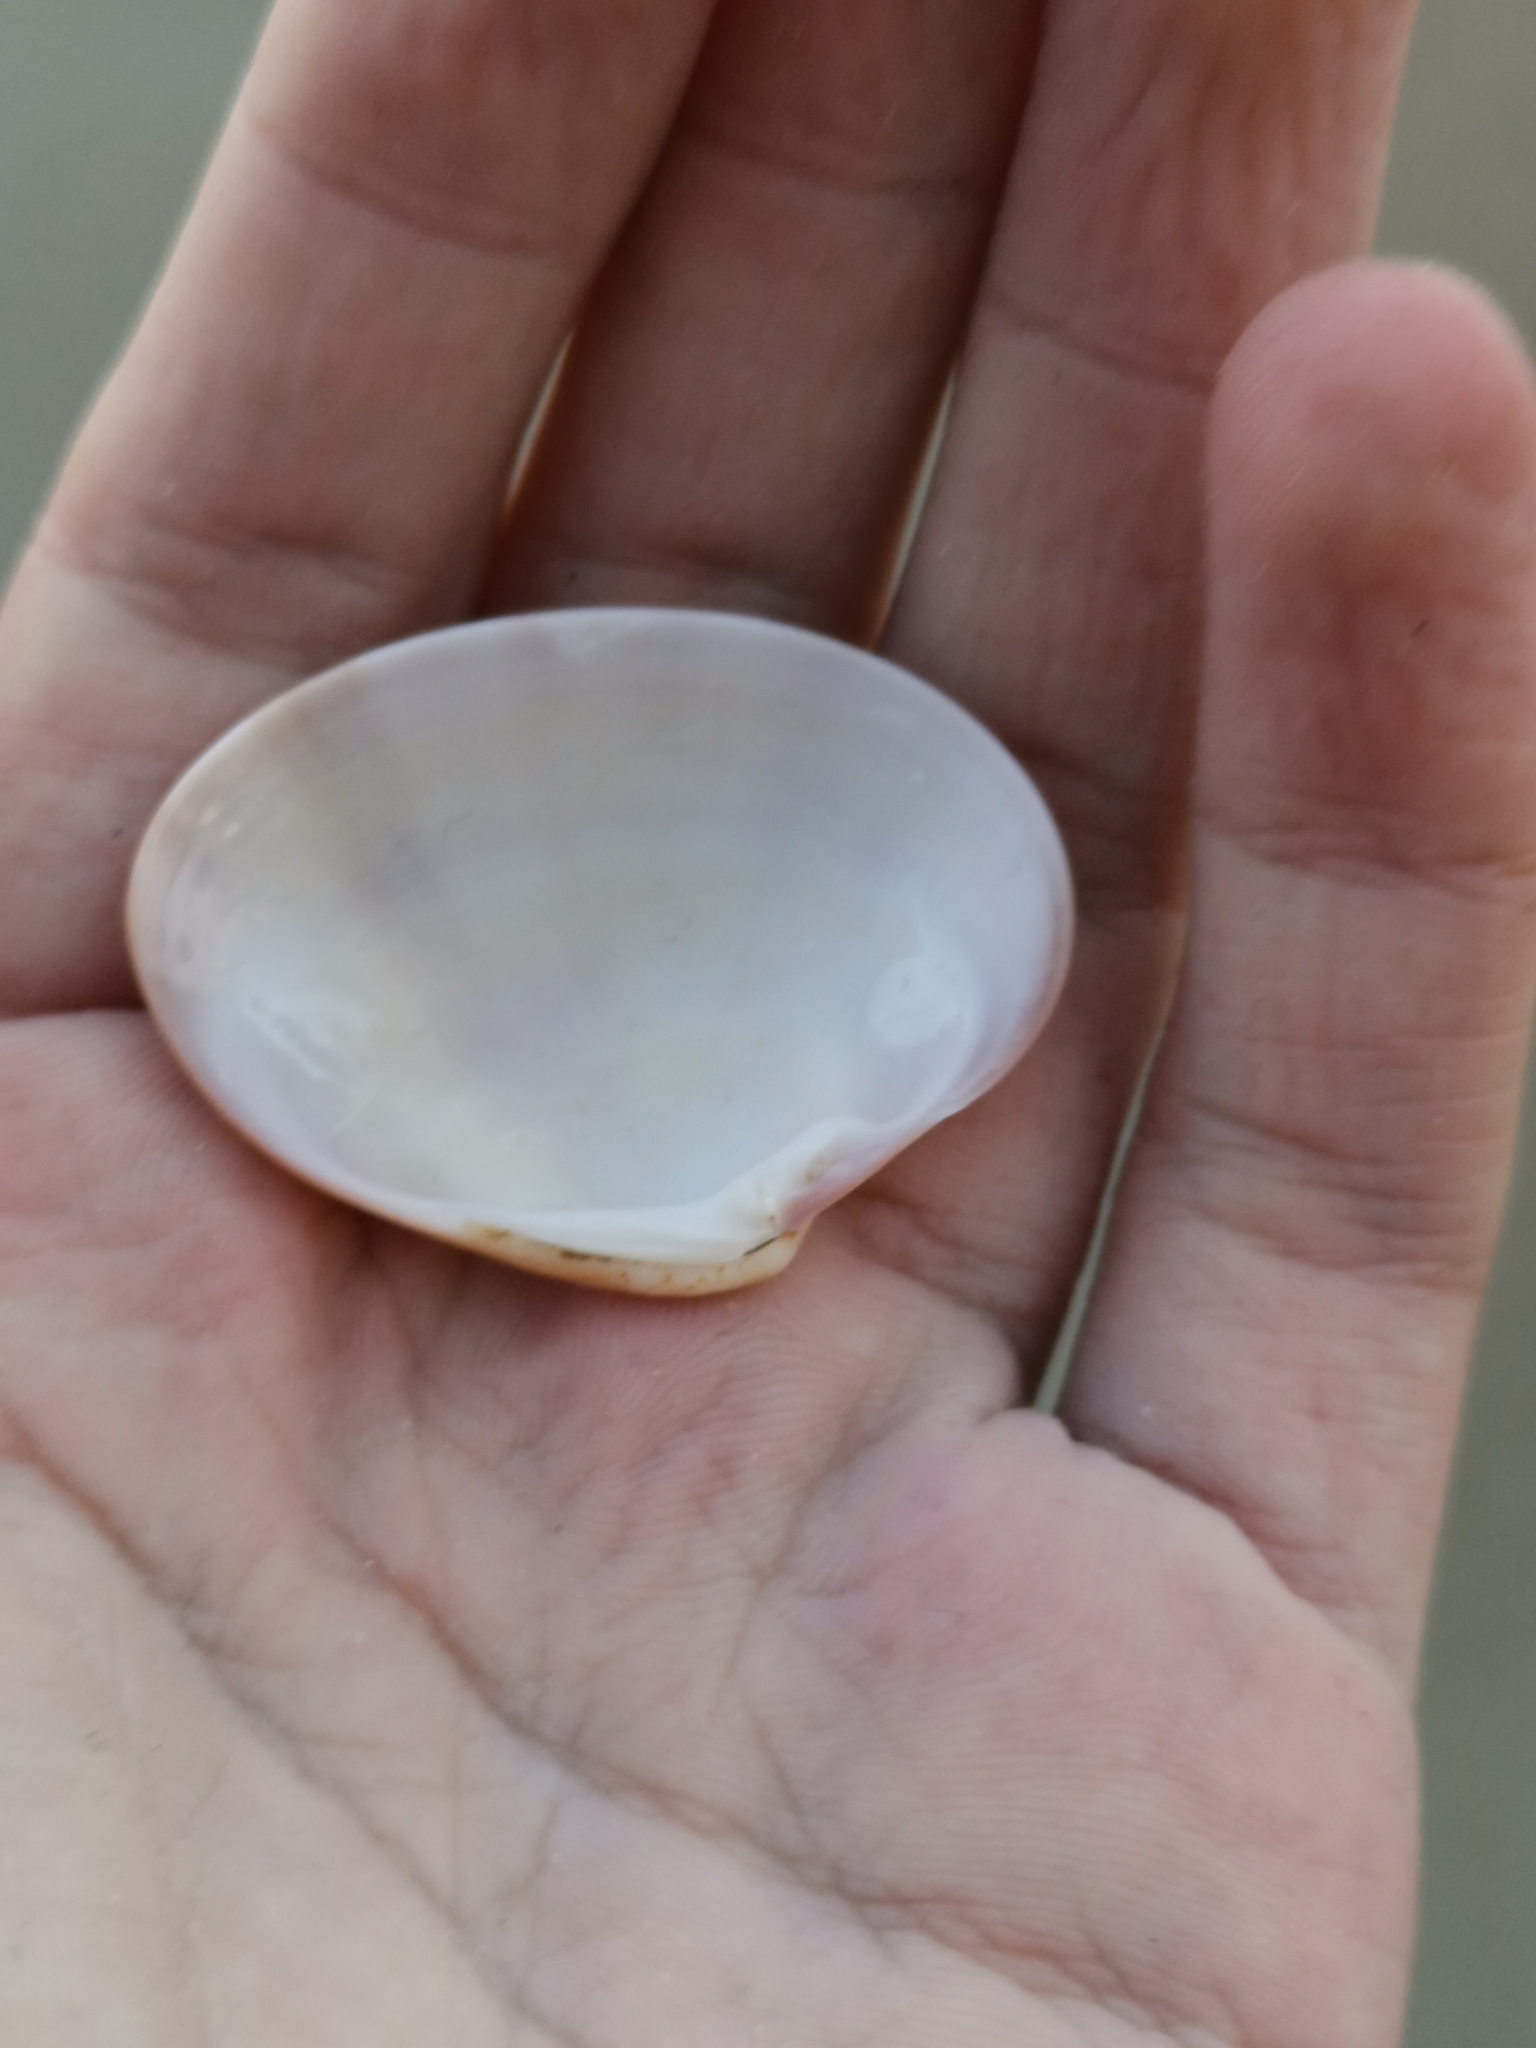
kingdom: Animalia
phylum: Mollusca
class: Bivalvia
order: Venerida
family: Veneridae
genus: Callista
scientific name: Callista chione
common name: Brown venus
